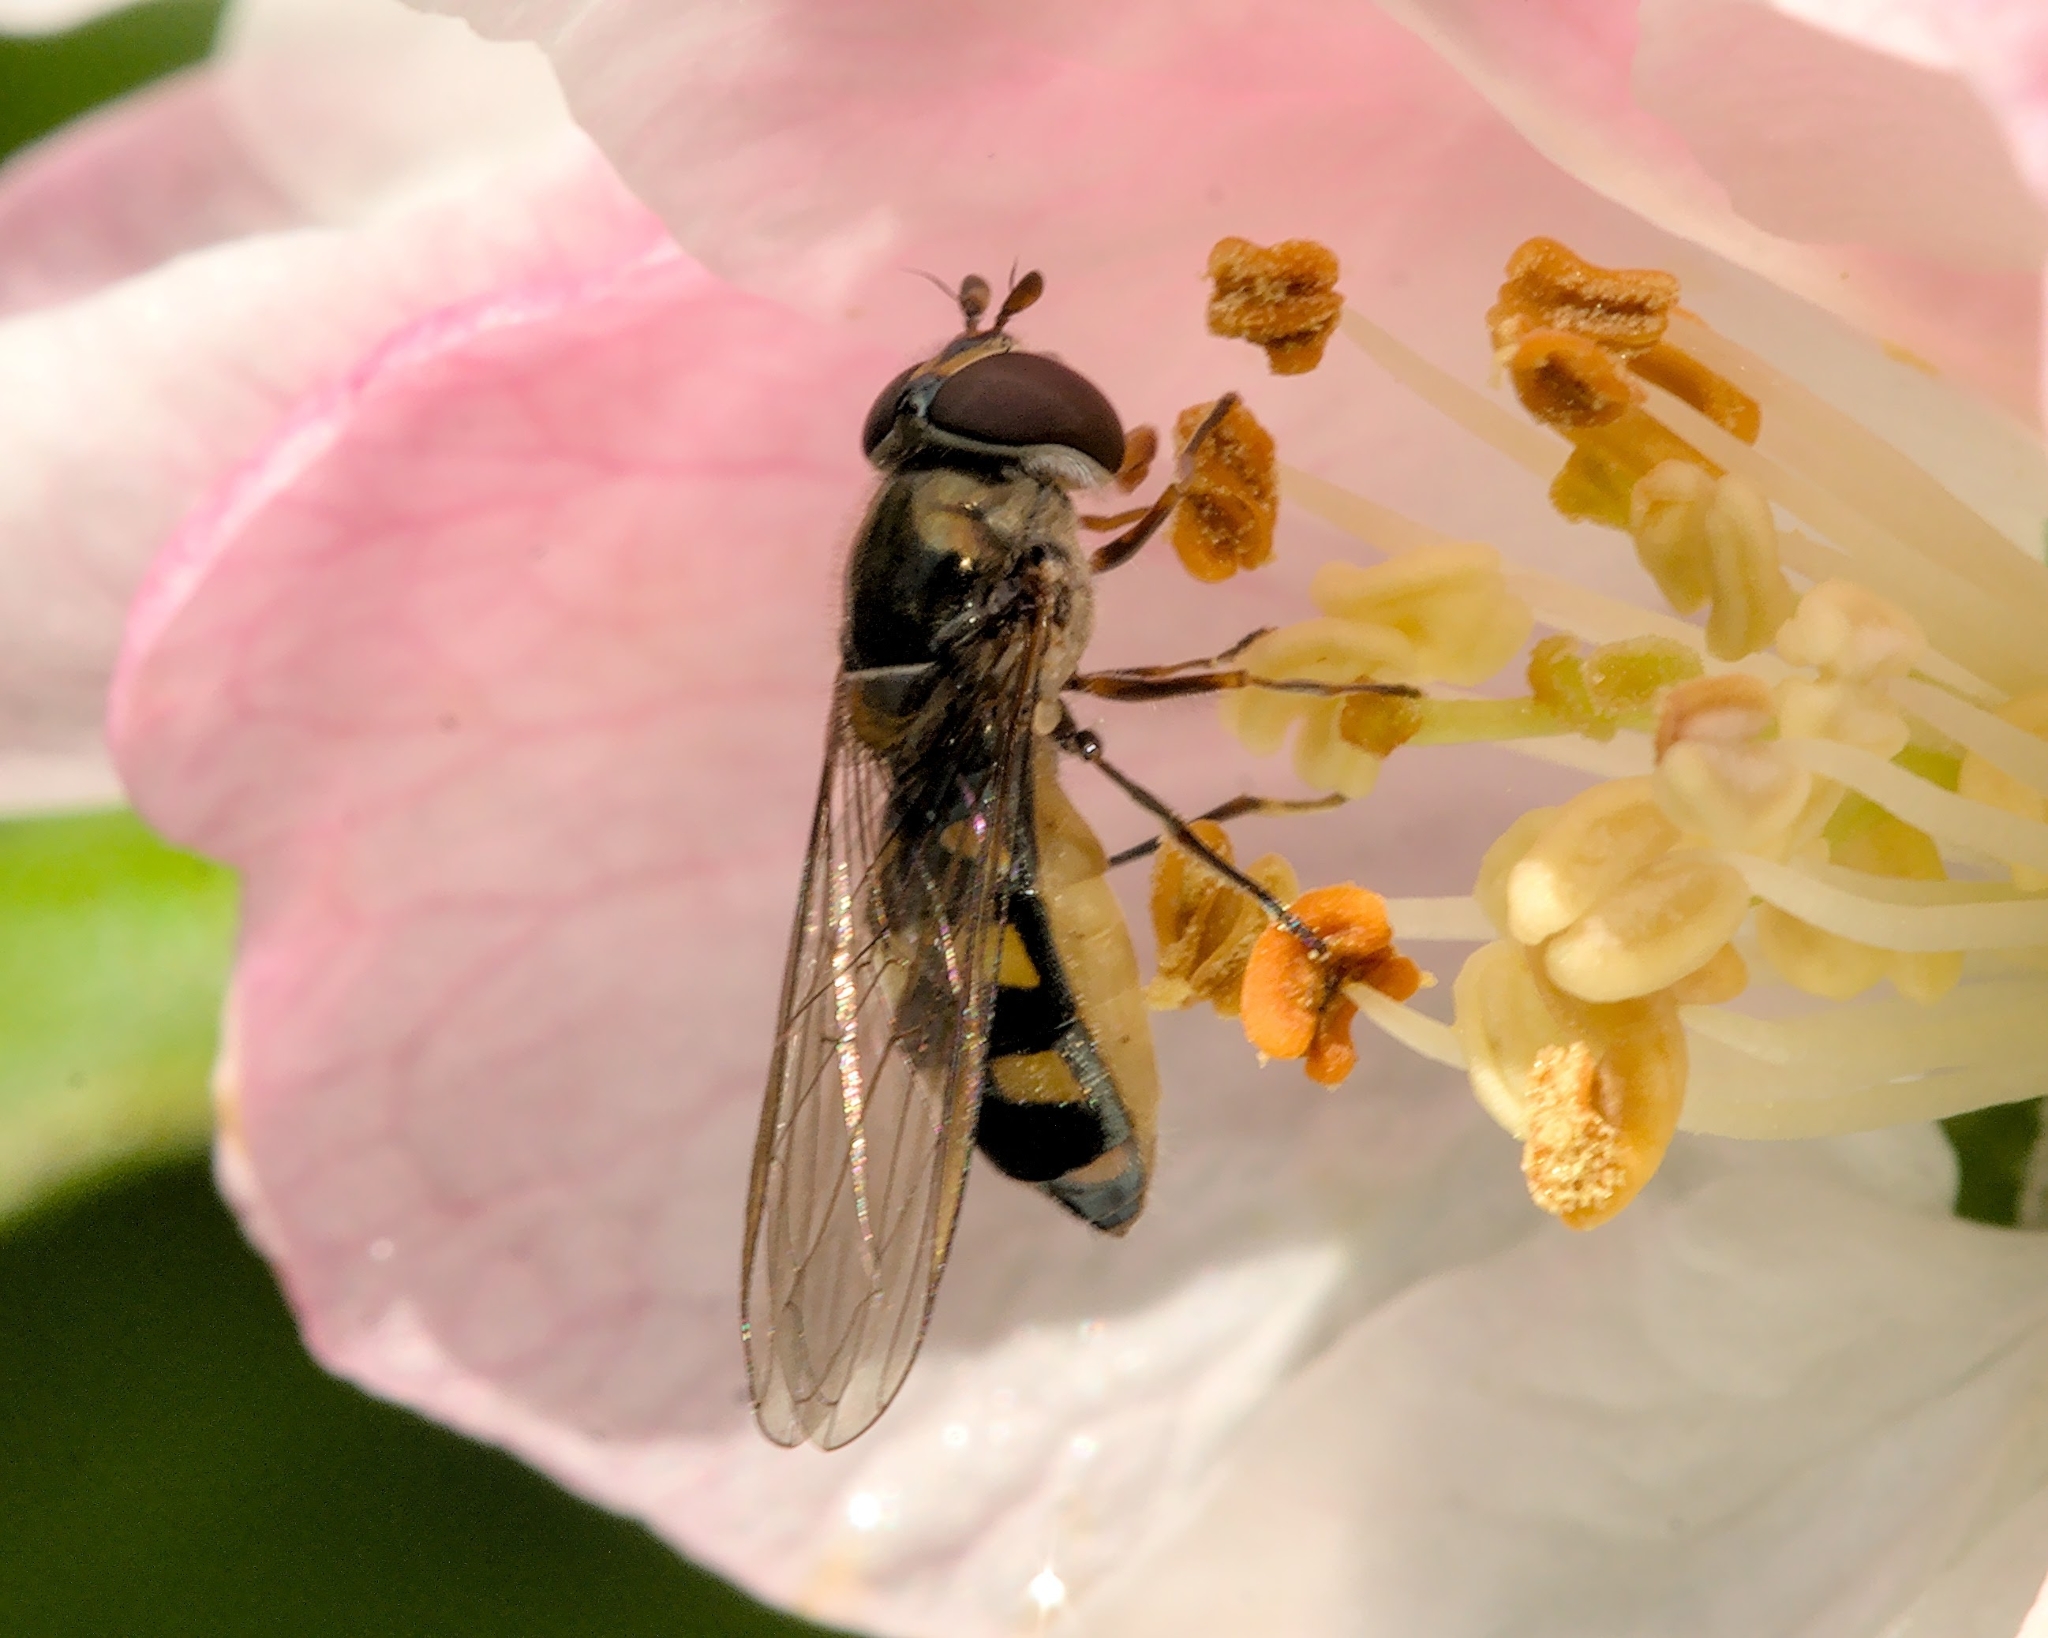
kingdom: Animalia
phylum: Arthropoda
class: Insecta
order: Diptera
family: Syrphidae
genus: Meliscaeva
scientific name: Meliscaeva auricollis
